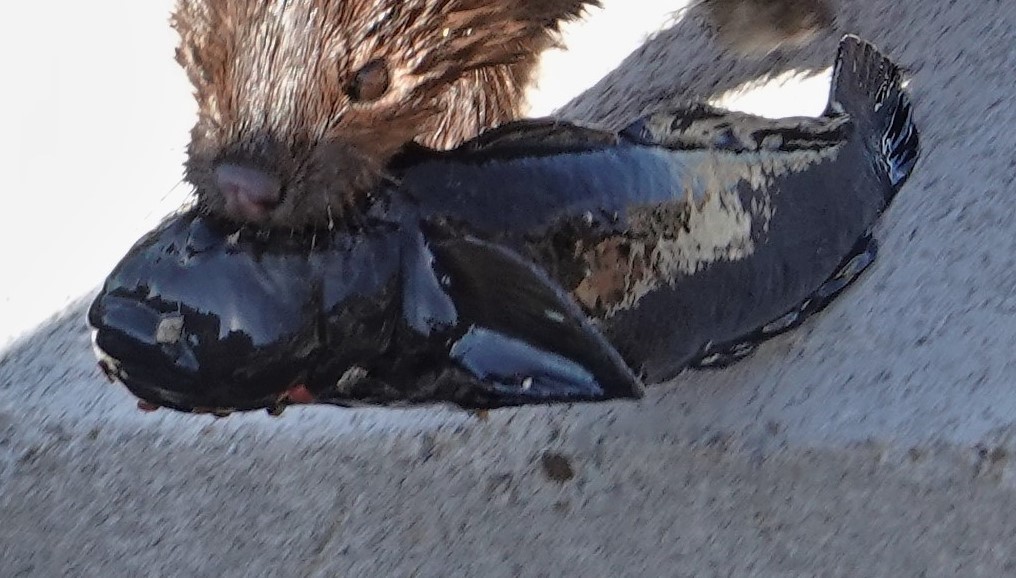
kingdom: Animalia
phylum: Chordata
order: Perciformes
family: Gobiidae
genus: Neogobius
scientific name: Neogobius melanostomus
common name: Round goby
